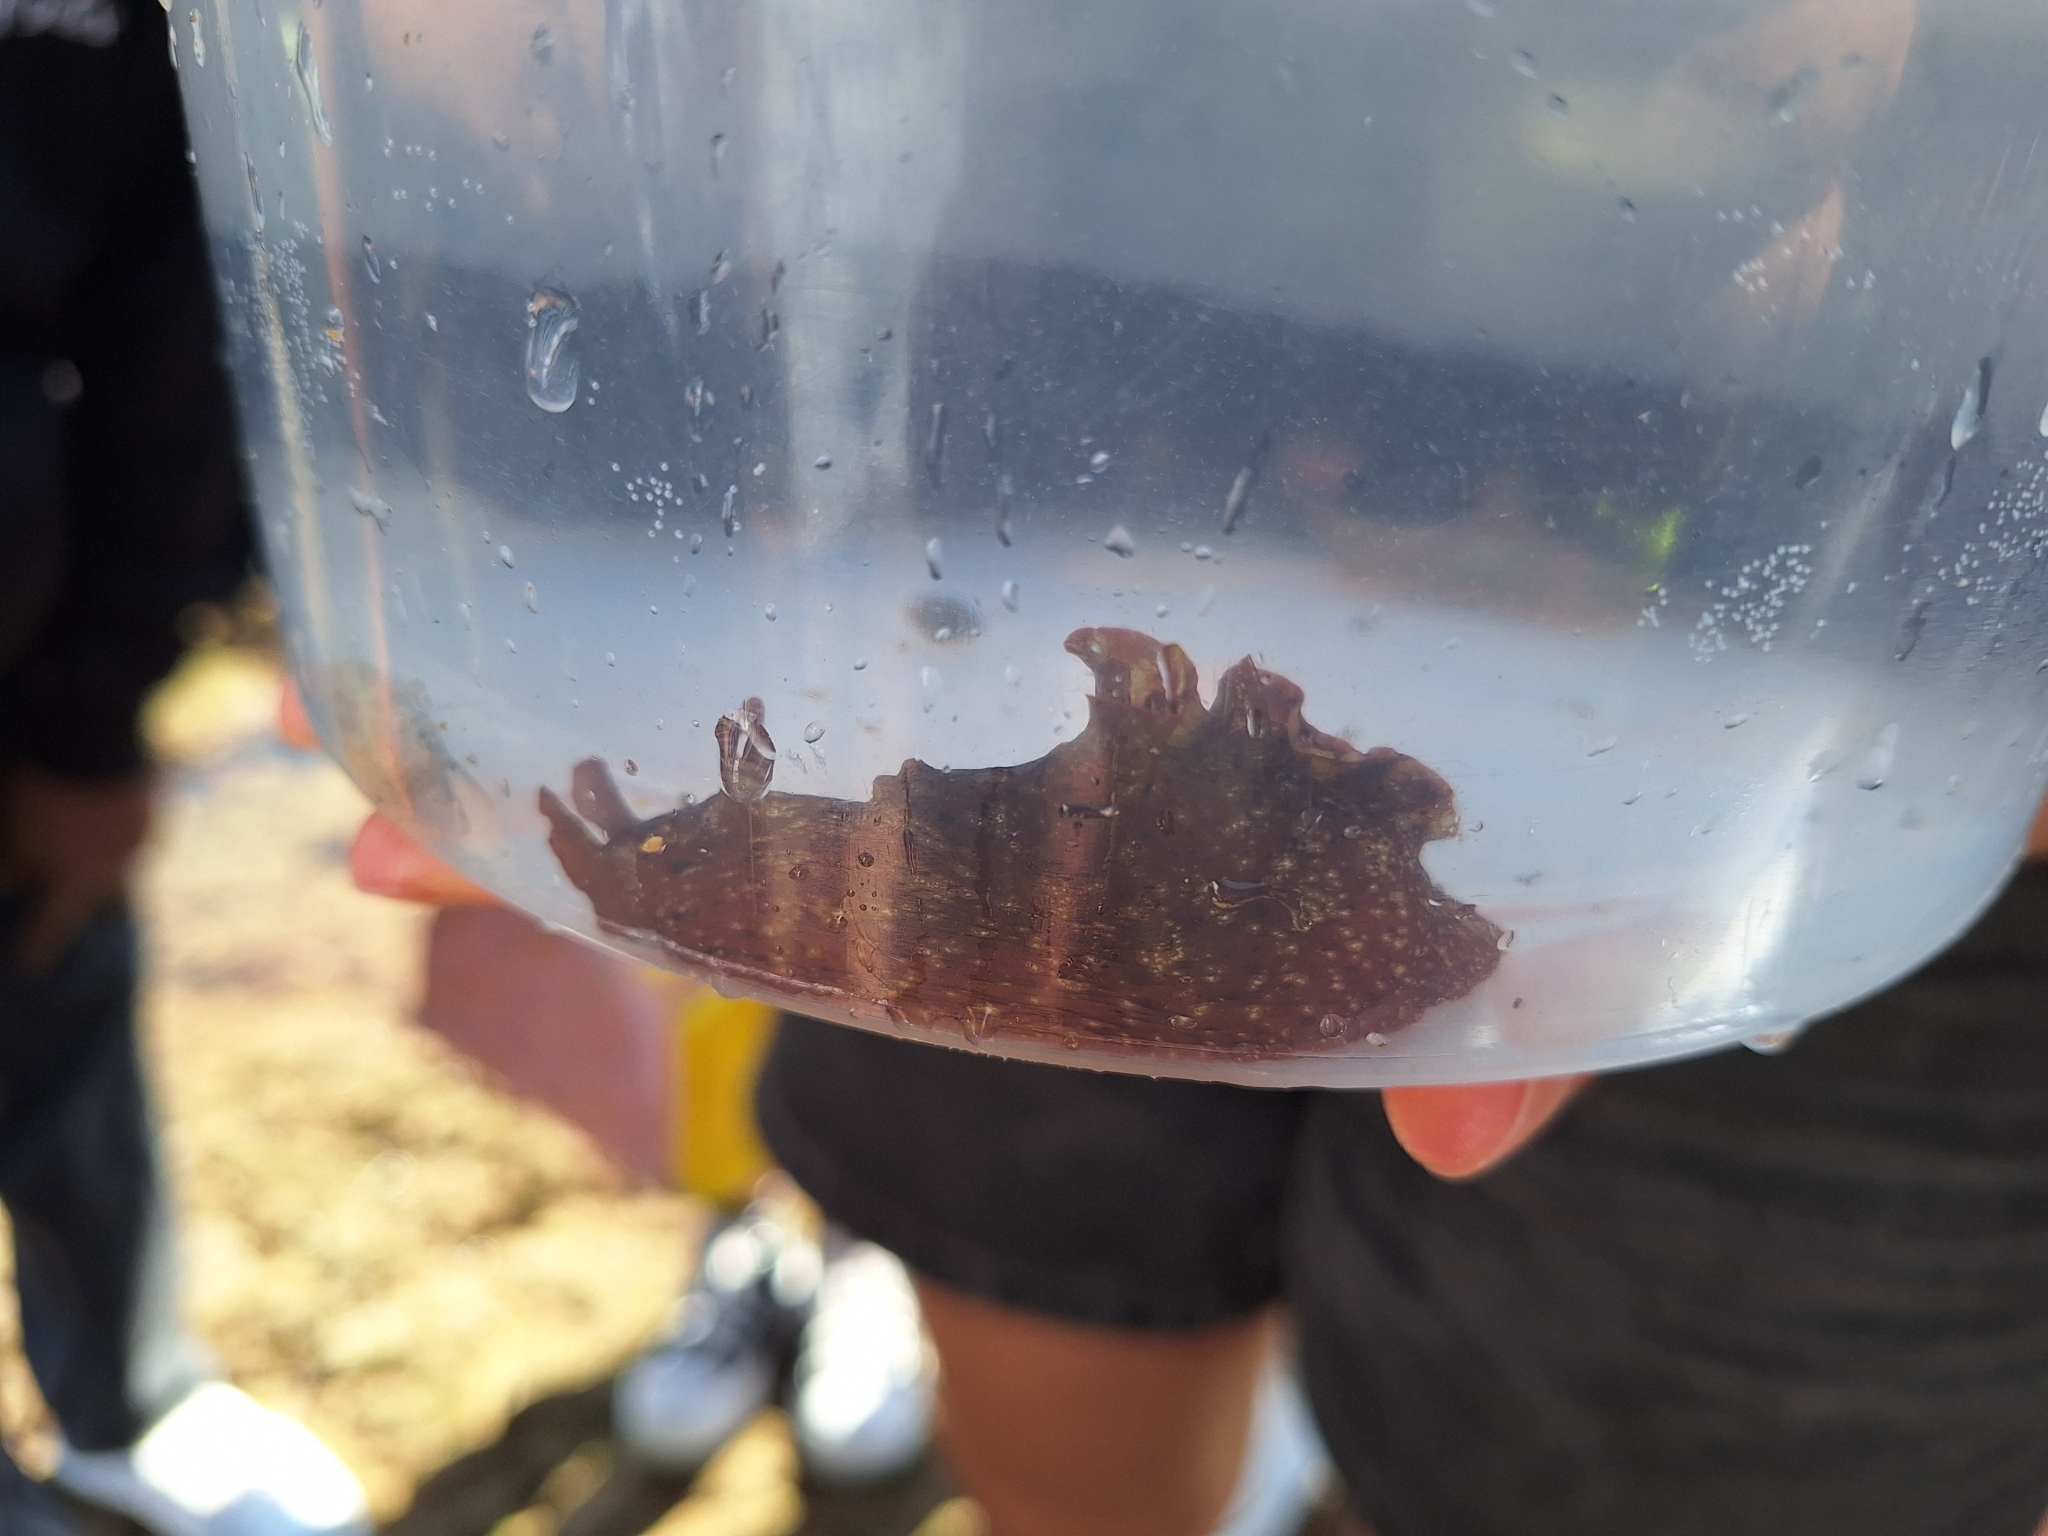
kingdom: Animalia
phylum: Mollusca
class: Gastropoda
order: Aplysiida
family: Aplysiidae
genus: Aplysia
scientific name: Aplysia punctata
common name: Common sea hare
